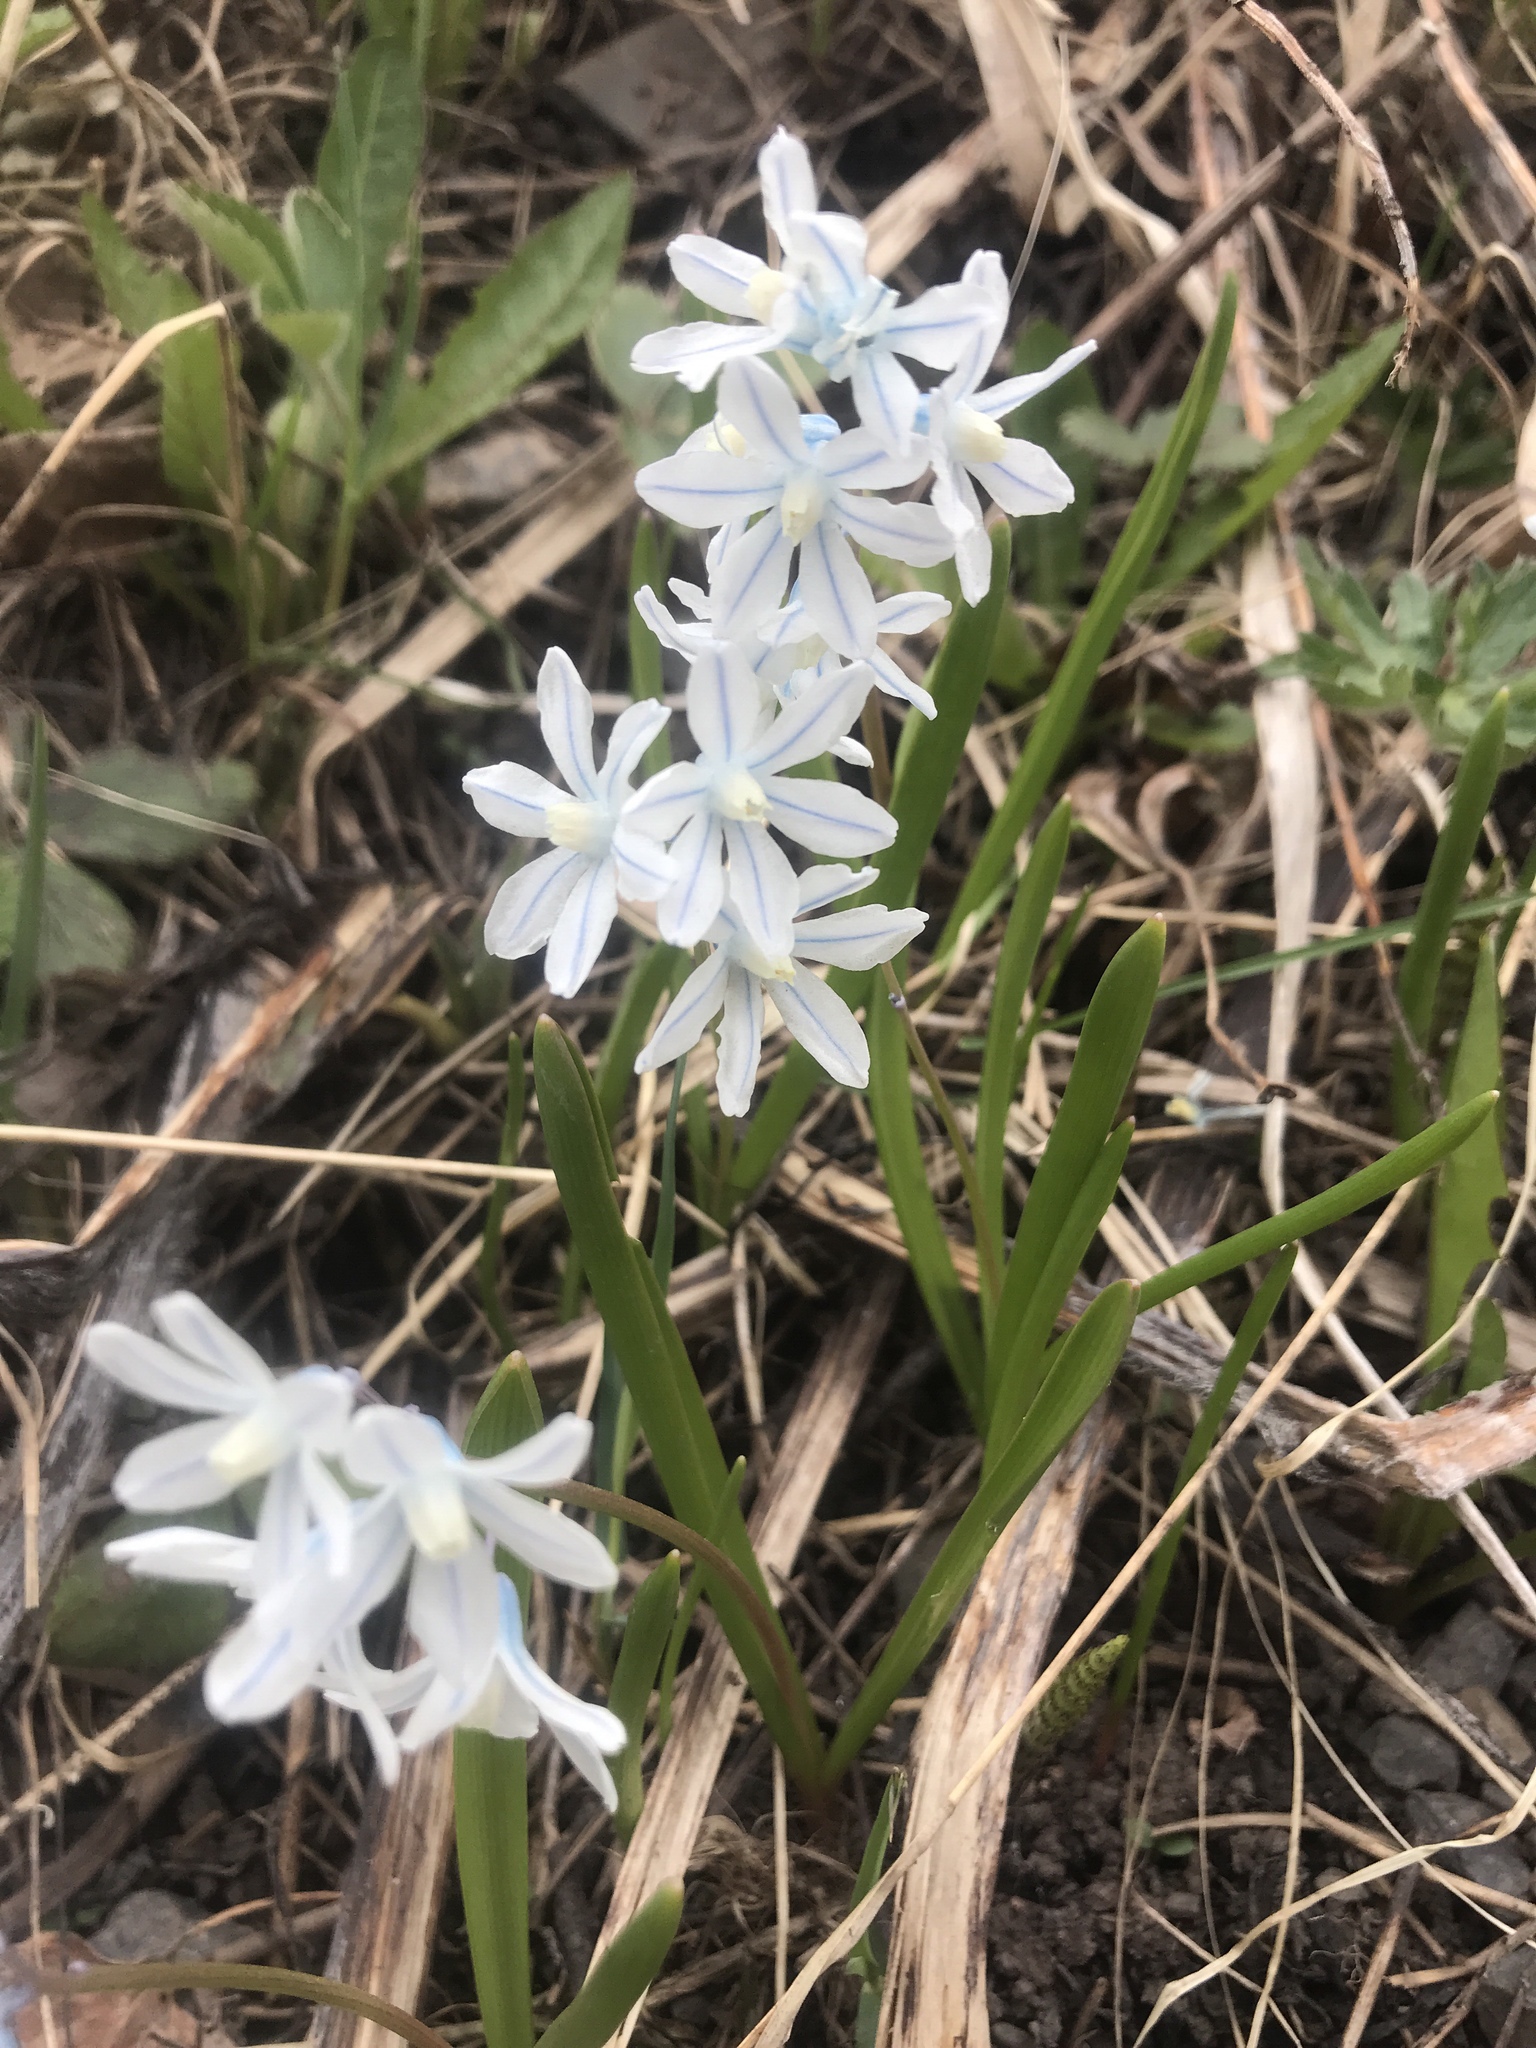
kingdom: Plantae
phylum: Tracheophyta
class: Liliopsida
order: Asparagales
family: Asparagaceae
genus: Puschkinia
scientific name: Puschkinia scilloides
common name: Striped squill
